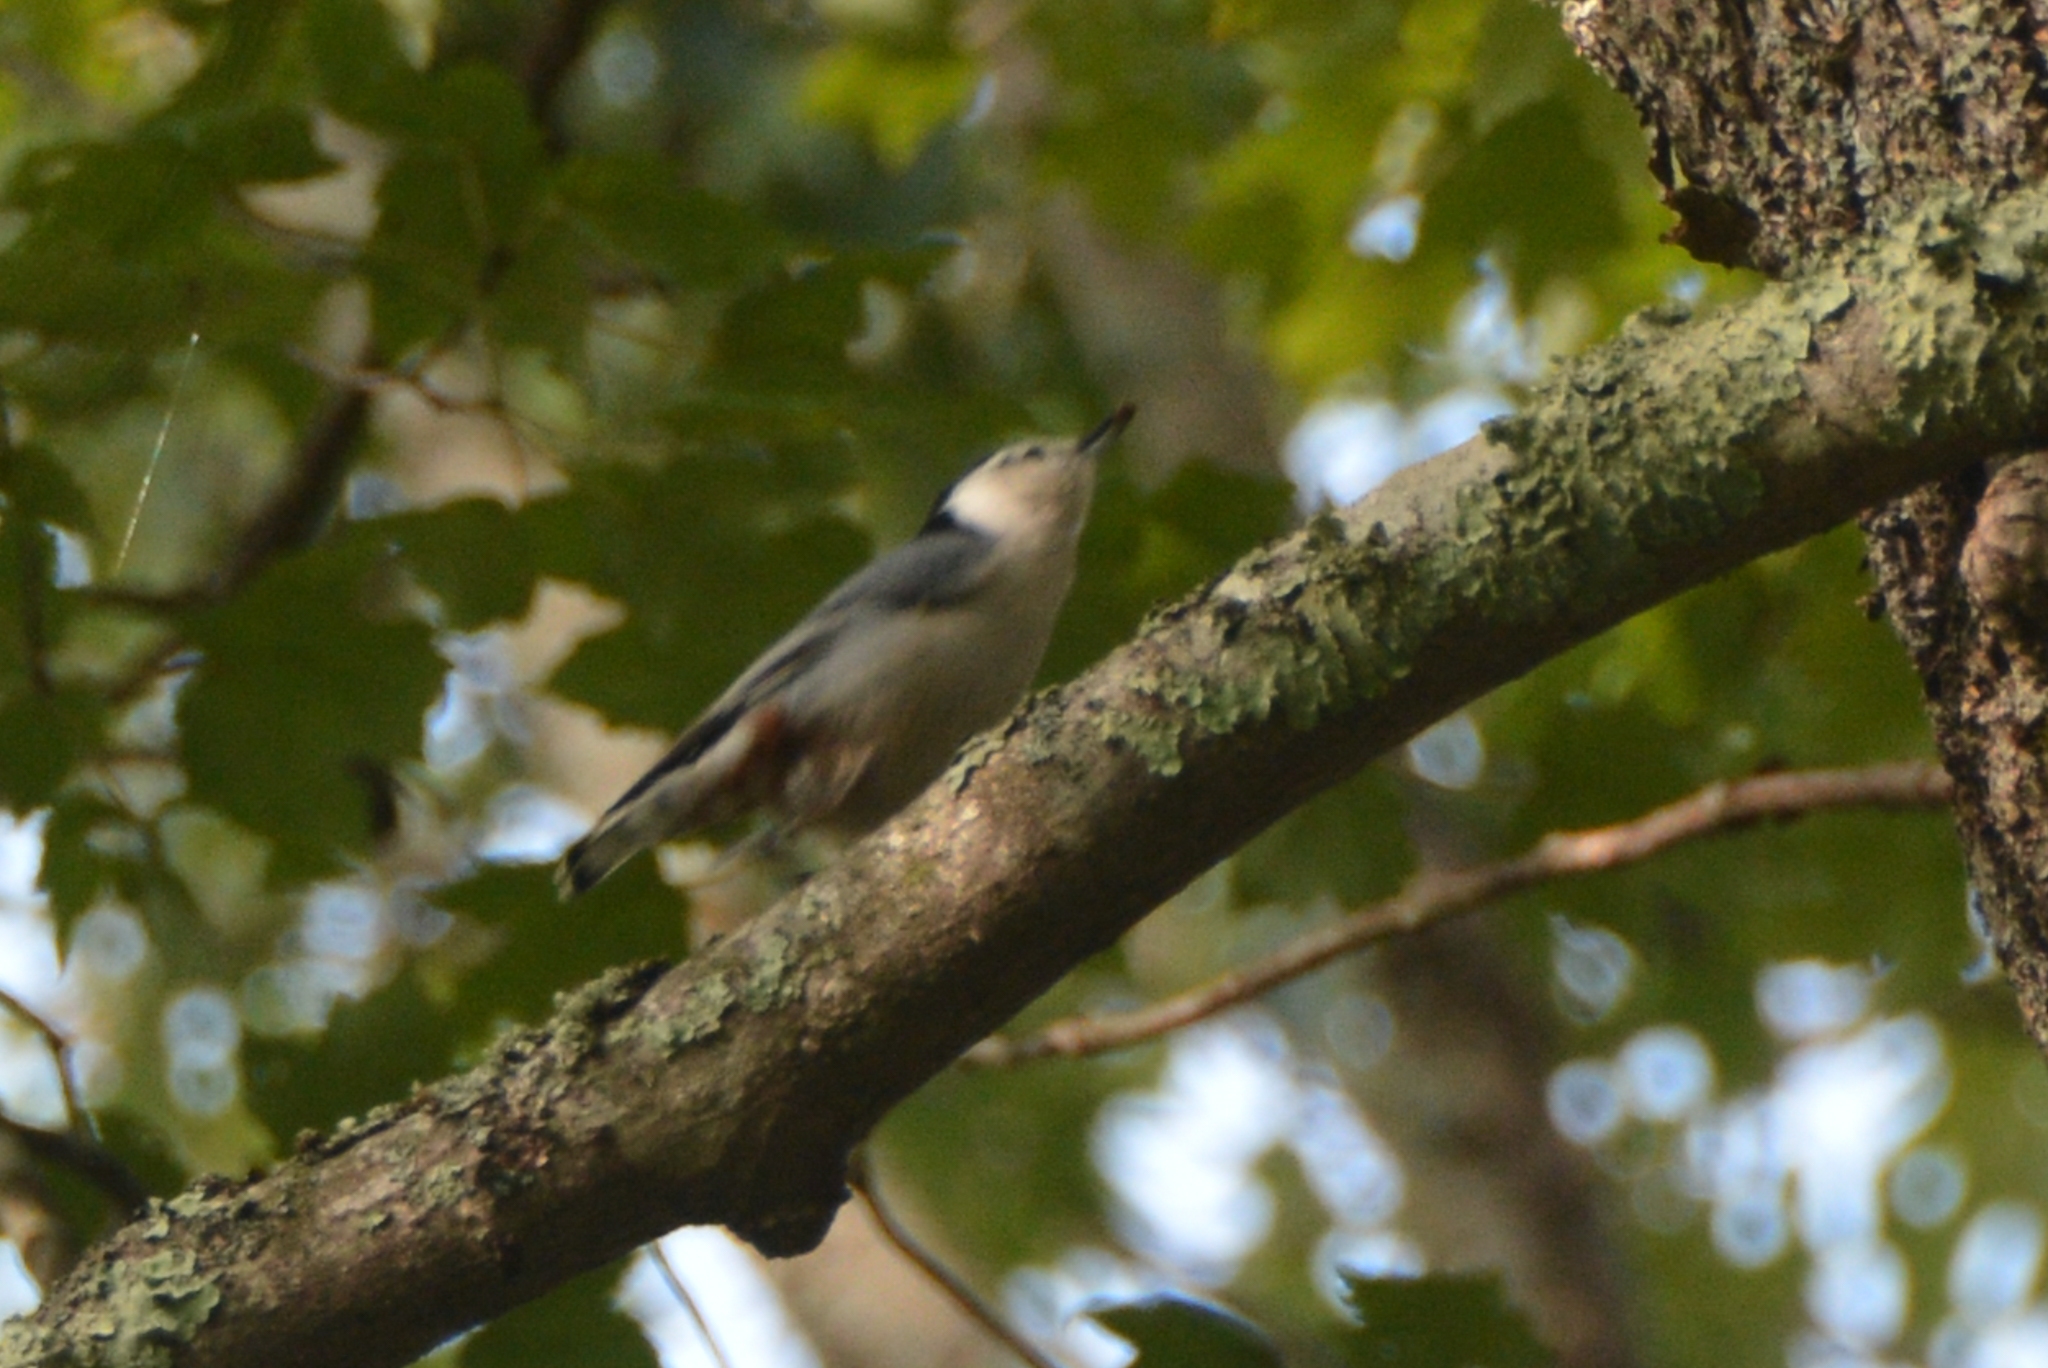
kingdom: Animalia
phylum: Chordata
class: Aves
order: Passeriformes
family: Sittidae
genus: Sitta
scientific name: Sitta carolinensis
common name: White-breasted nuthatch
